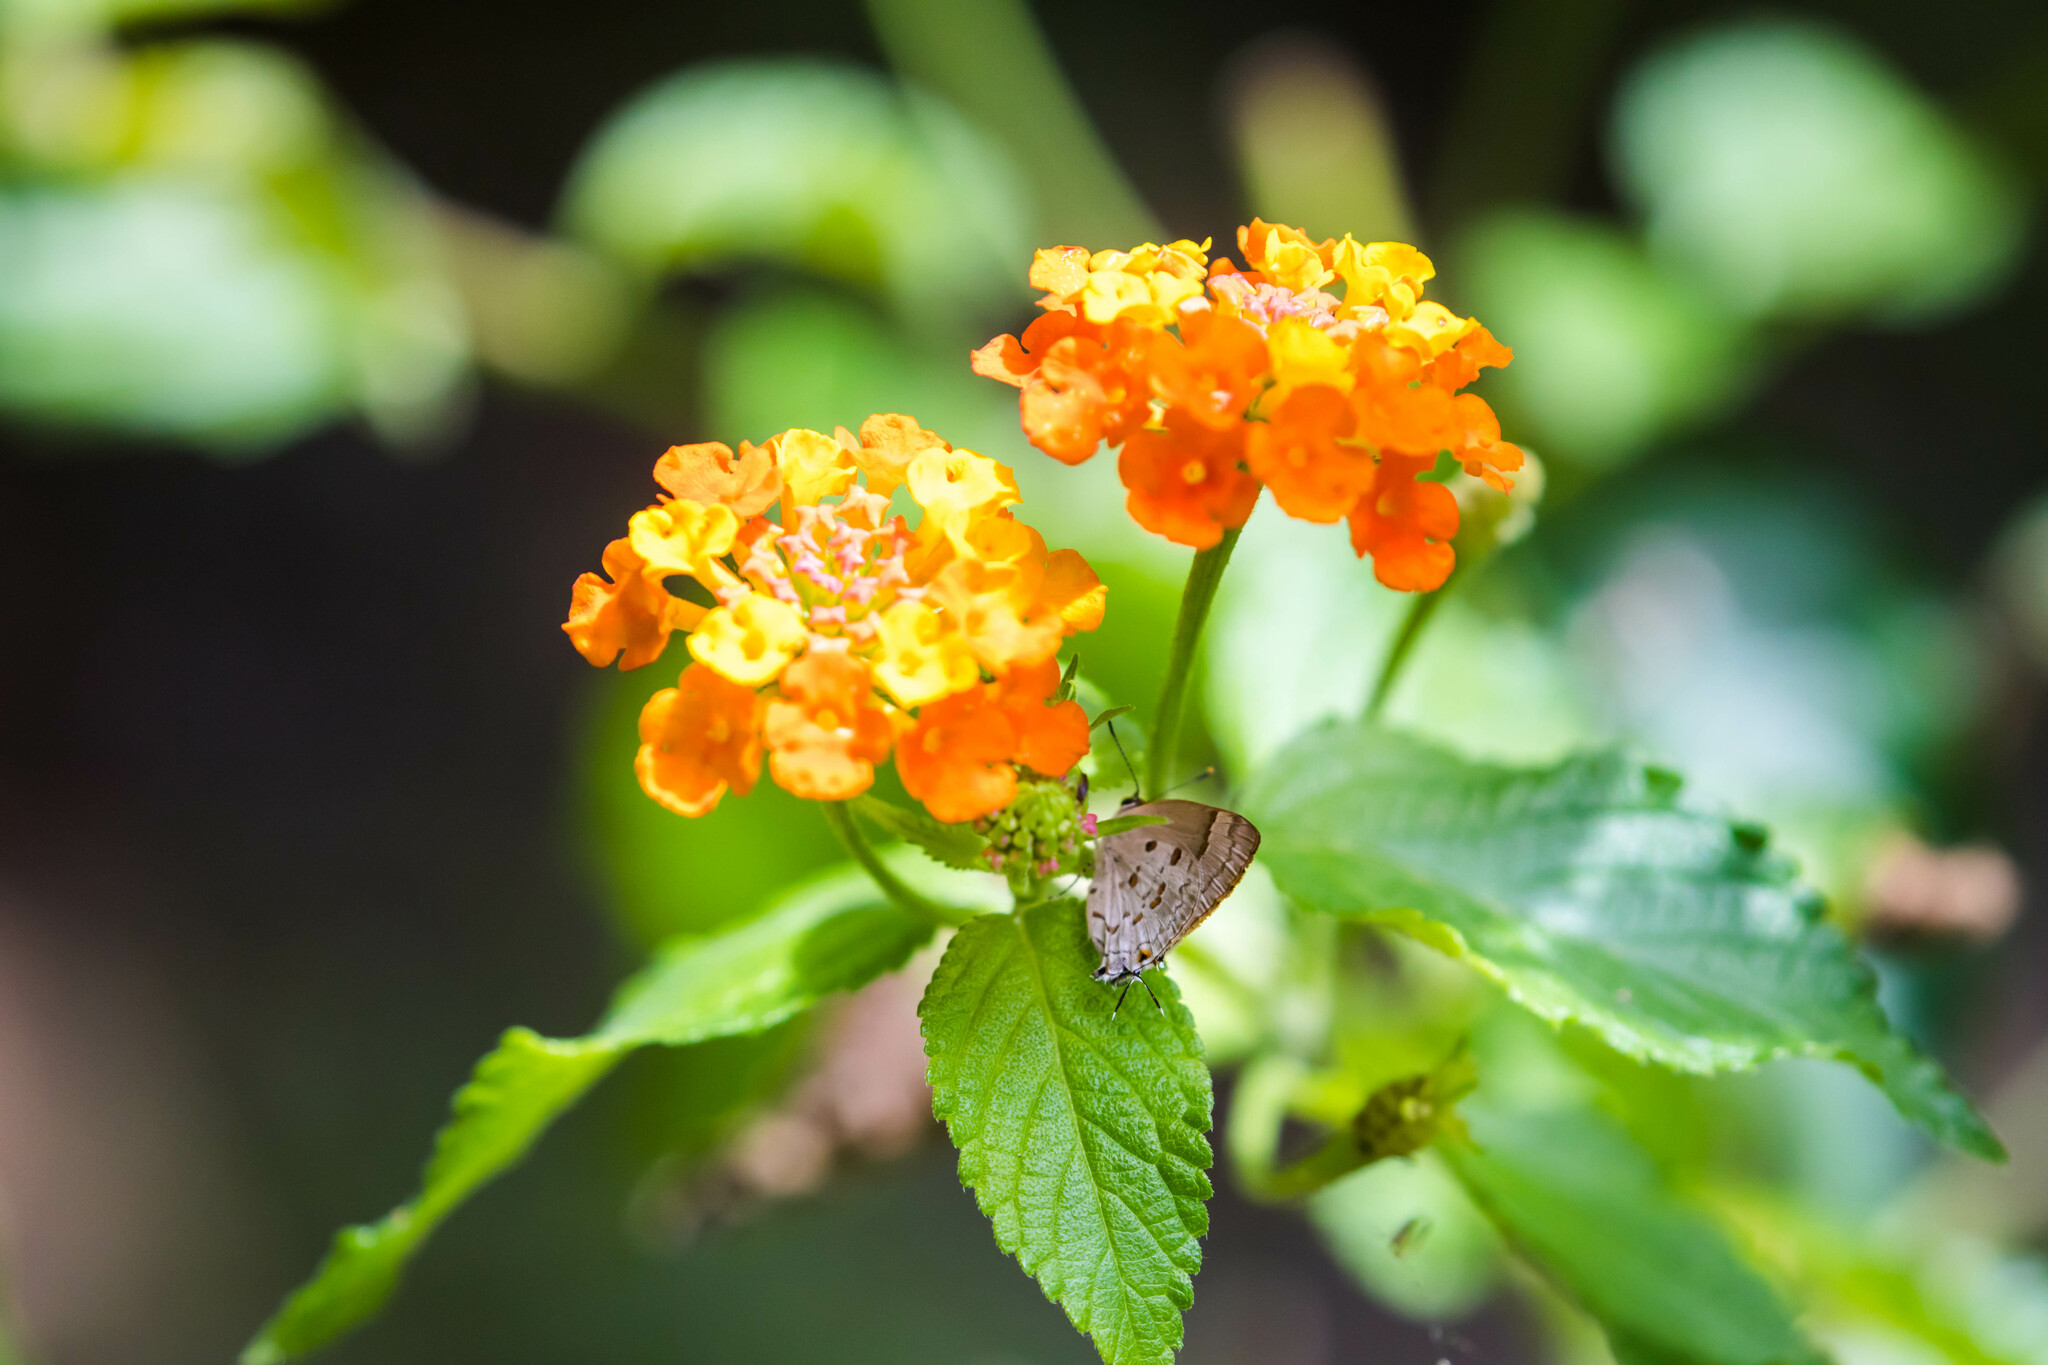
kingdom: Animalia
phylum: Arthropoda
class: Insecta
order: Lepidoptera
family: Lycaenidae
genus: Tmolus
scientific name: Tmolus echion
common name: Red-spotted hairstreak
